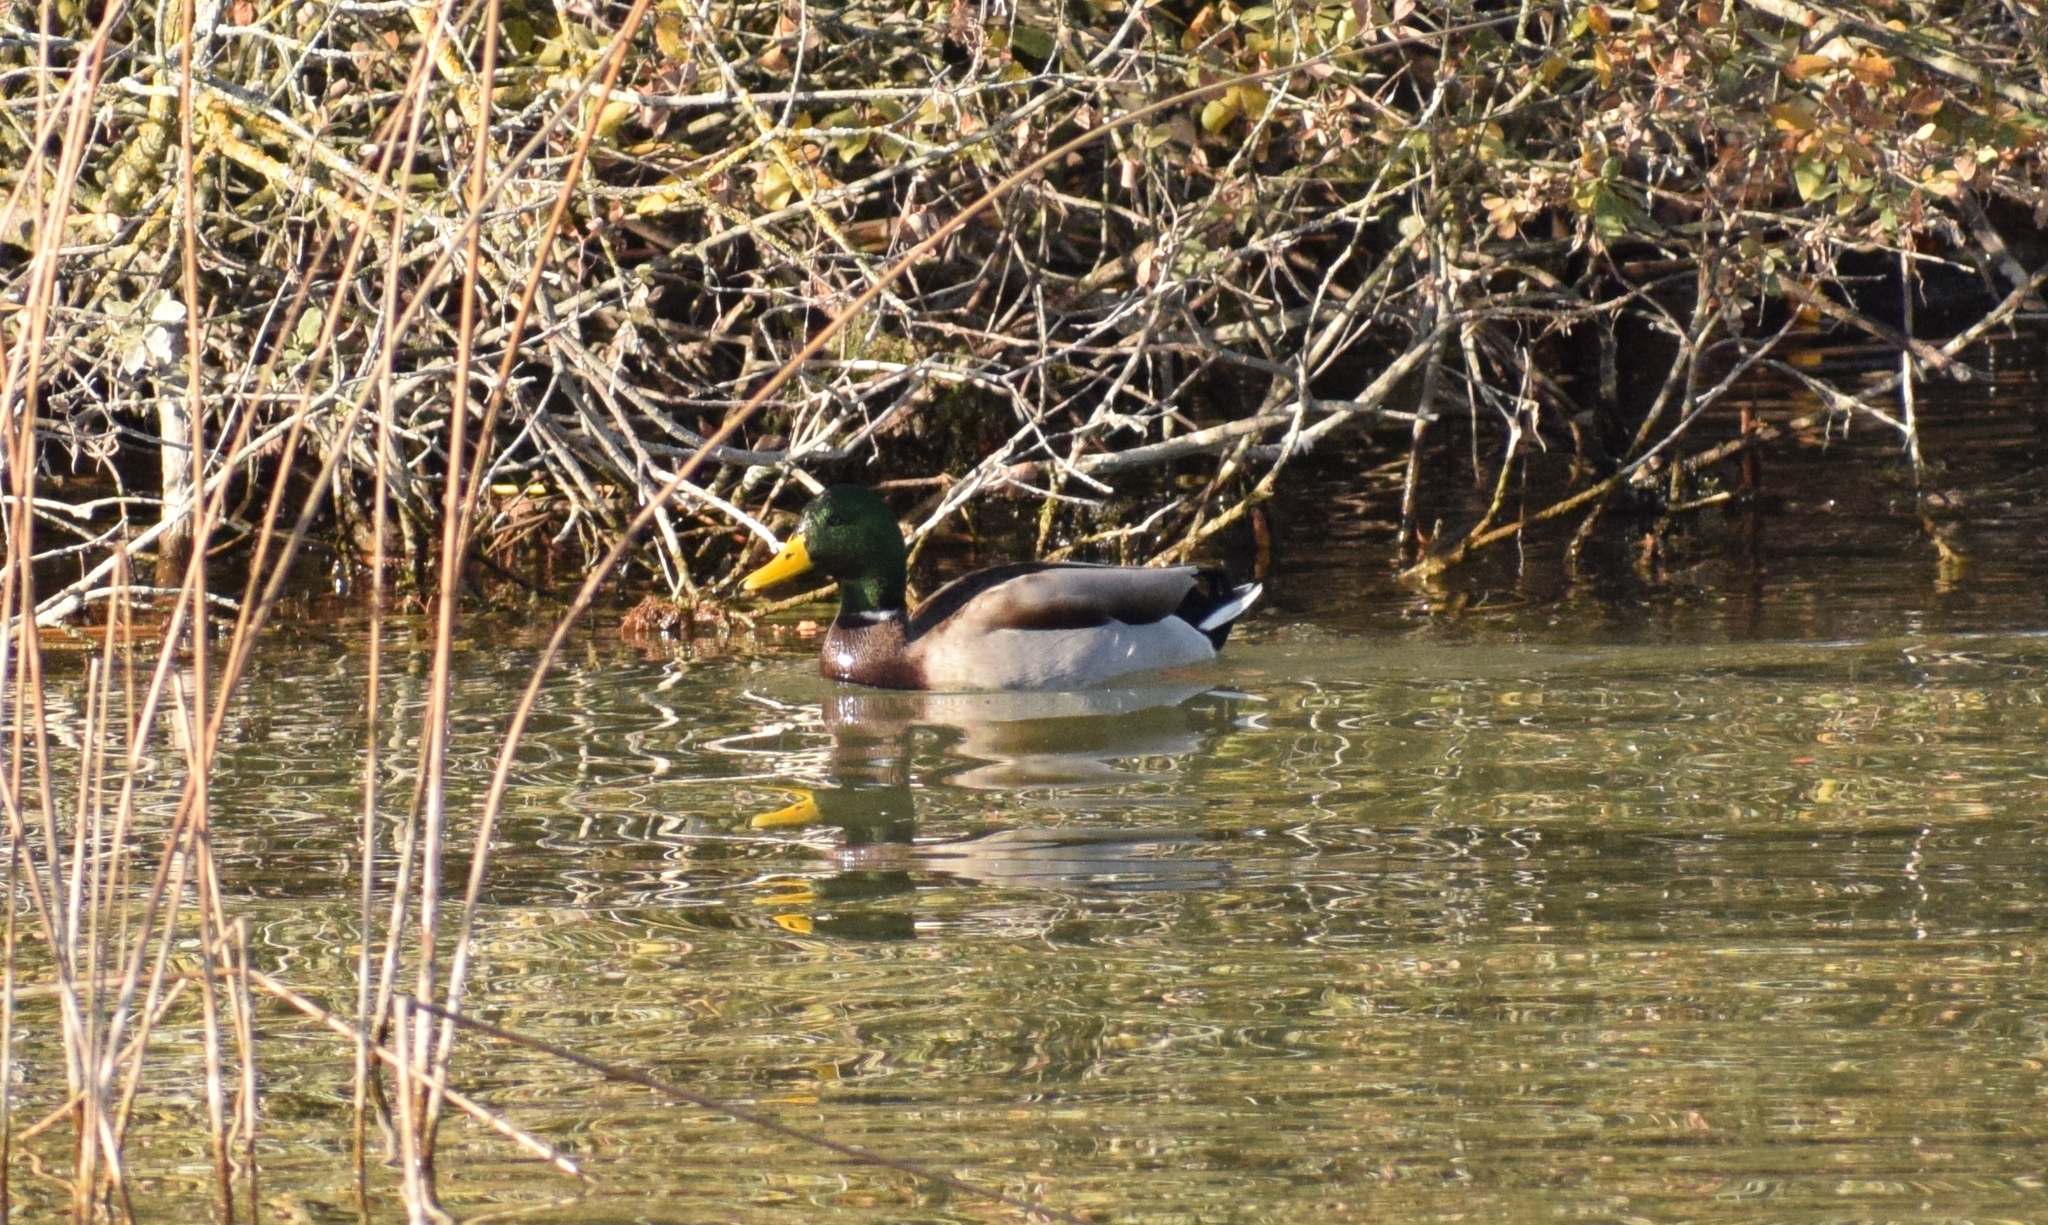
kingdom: Animalia
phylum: Chordata
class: Aves
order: Anseriformes
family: Anatidae
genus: Anas
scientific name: Anas platyrhynchos
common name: Mallard
